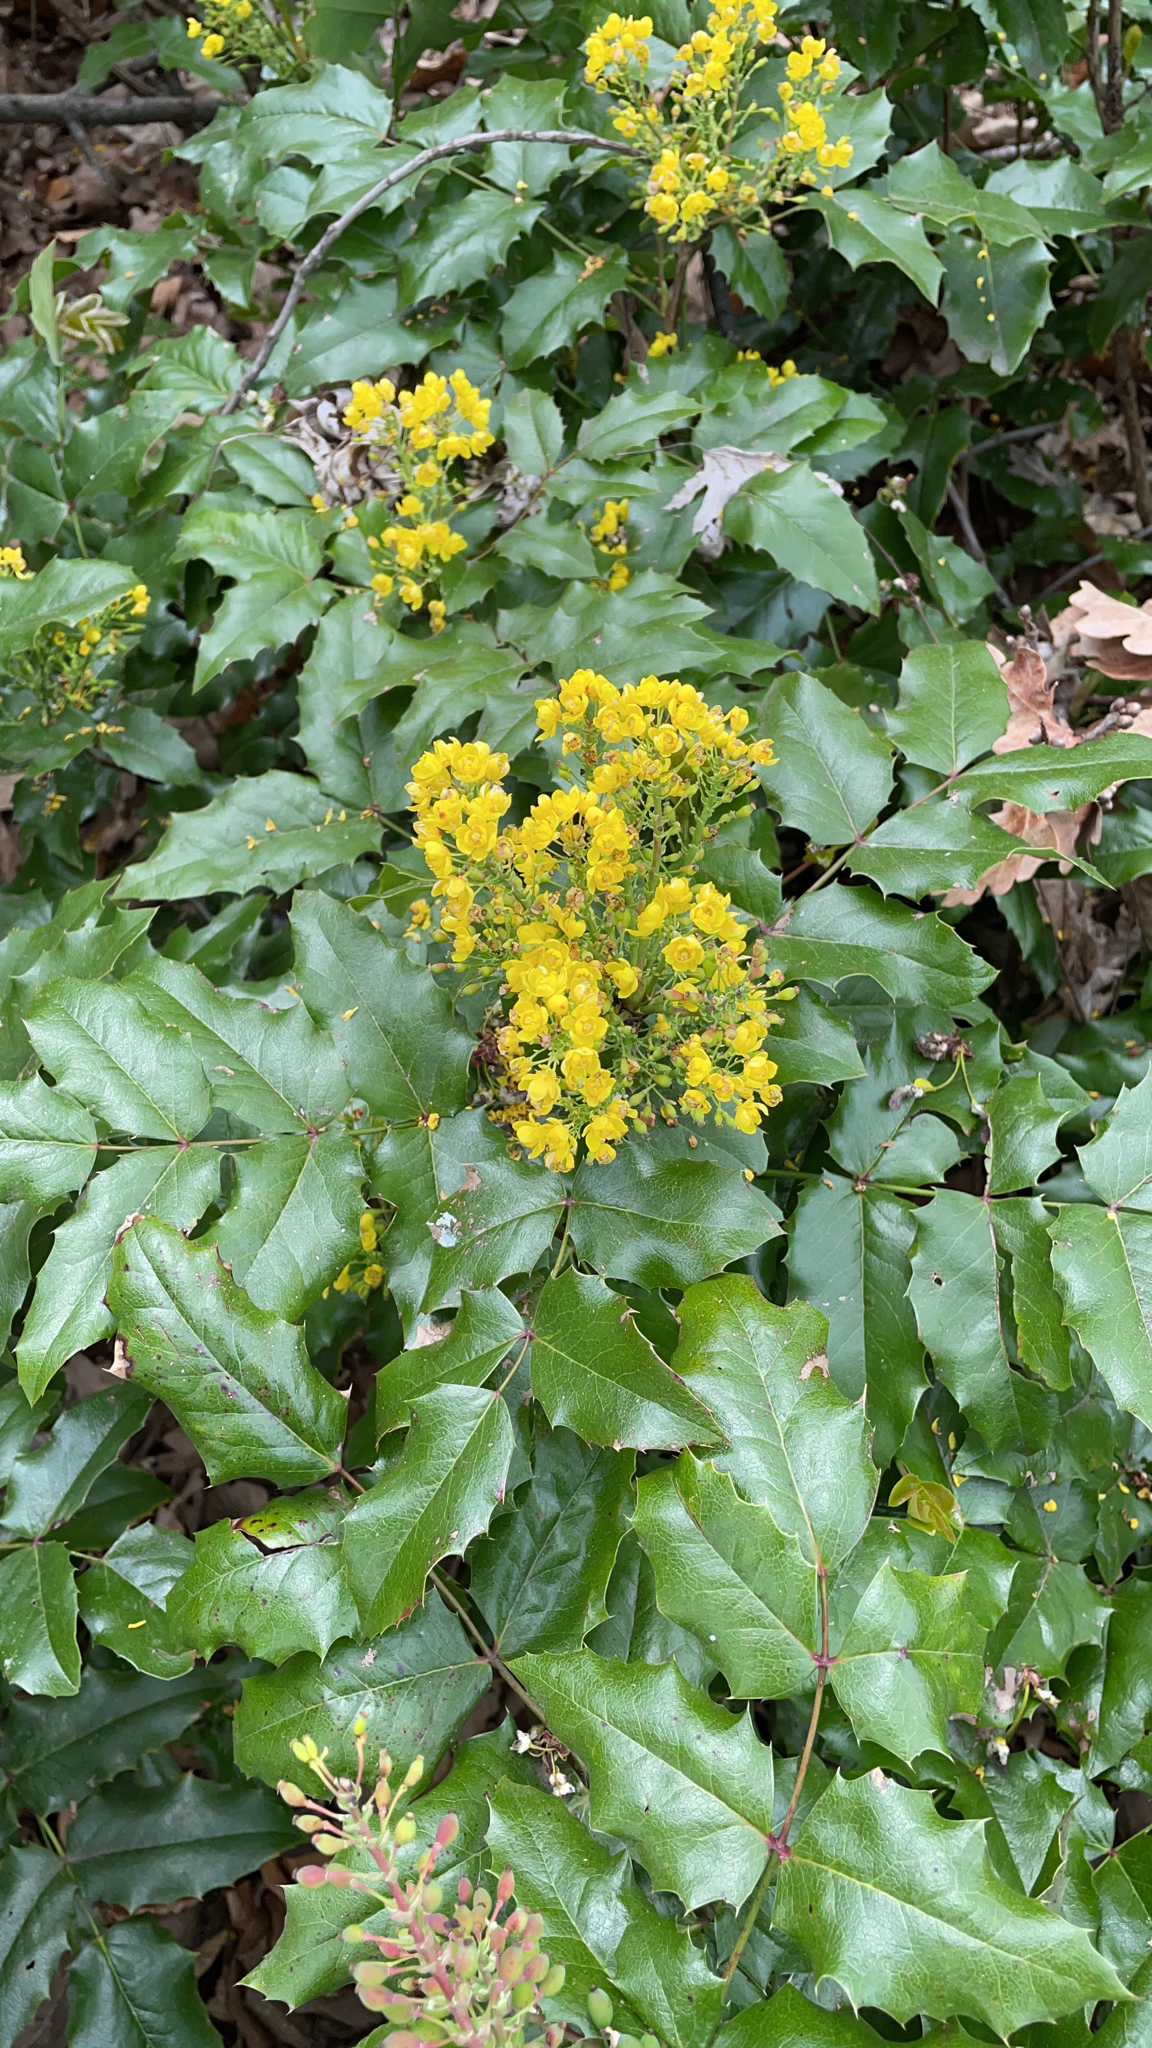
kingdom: Plantae
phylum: Tracheophyta
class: Magnoliopsida
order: Ranunculales
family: Berberidaceae
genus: Mahonia
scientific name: Mahonia aquifolium
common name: Oregon-grape
